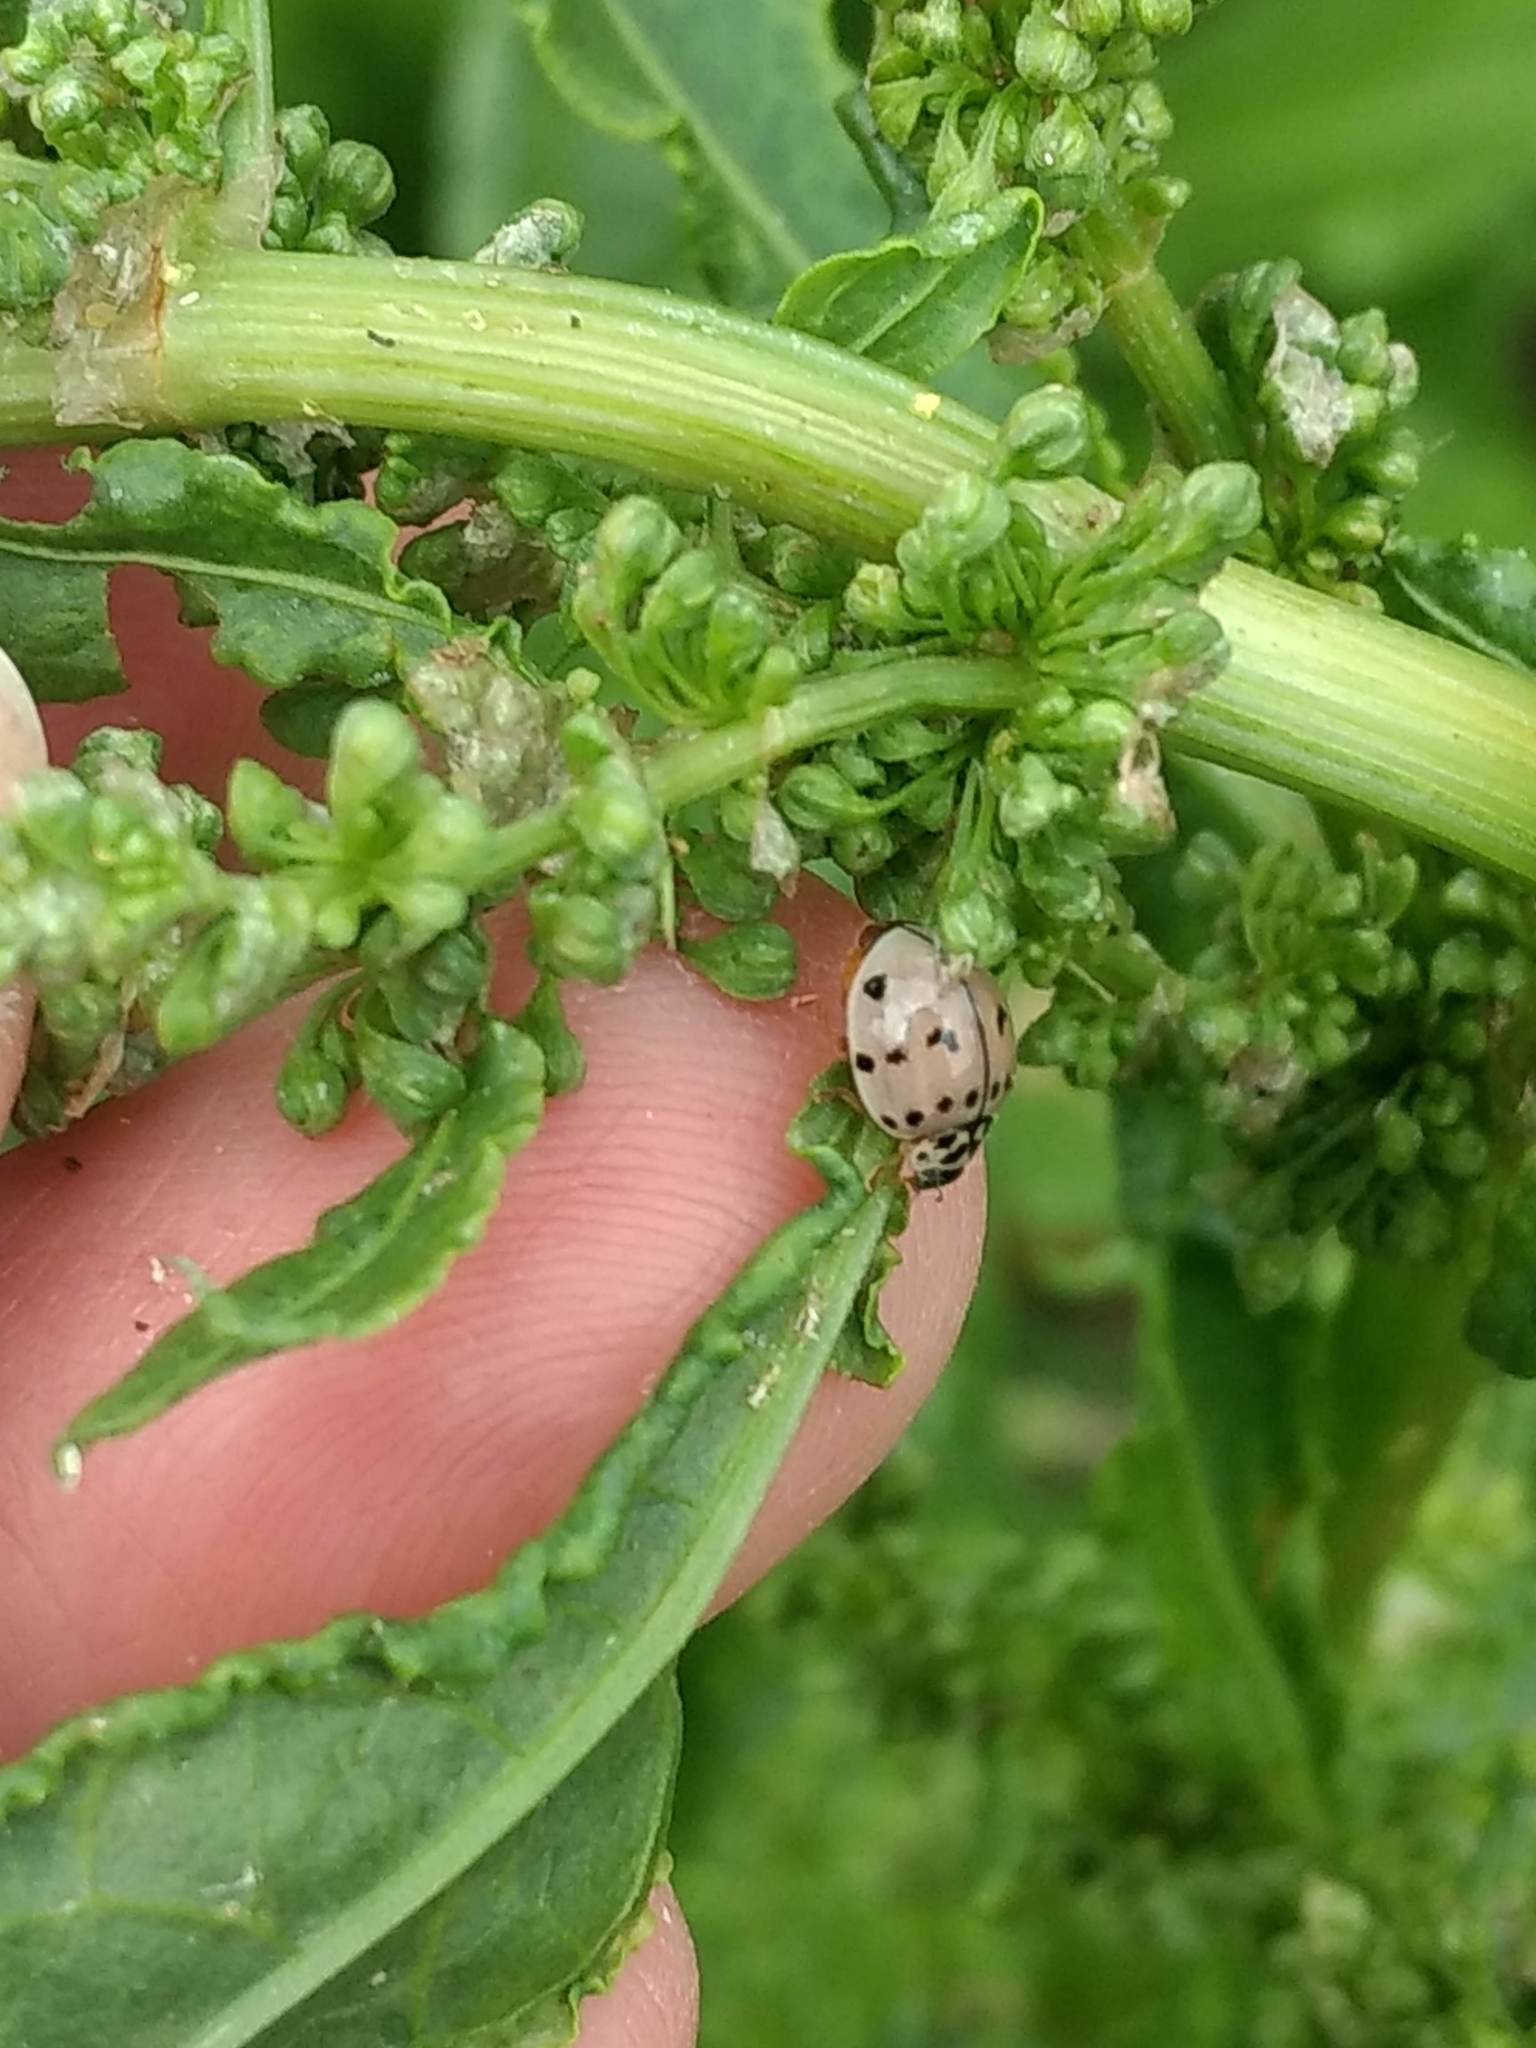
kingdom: Animalia
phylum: Arthropoda
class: Insecta
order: Coleoptera
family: Coccinellidae
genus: Olla
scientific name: Olla v-nigrum
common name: Ashy gray lady beetle
